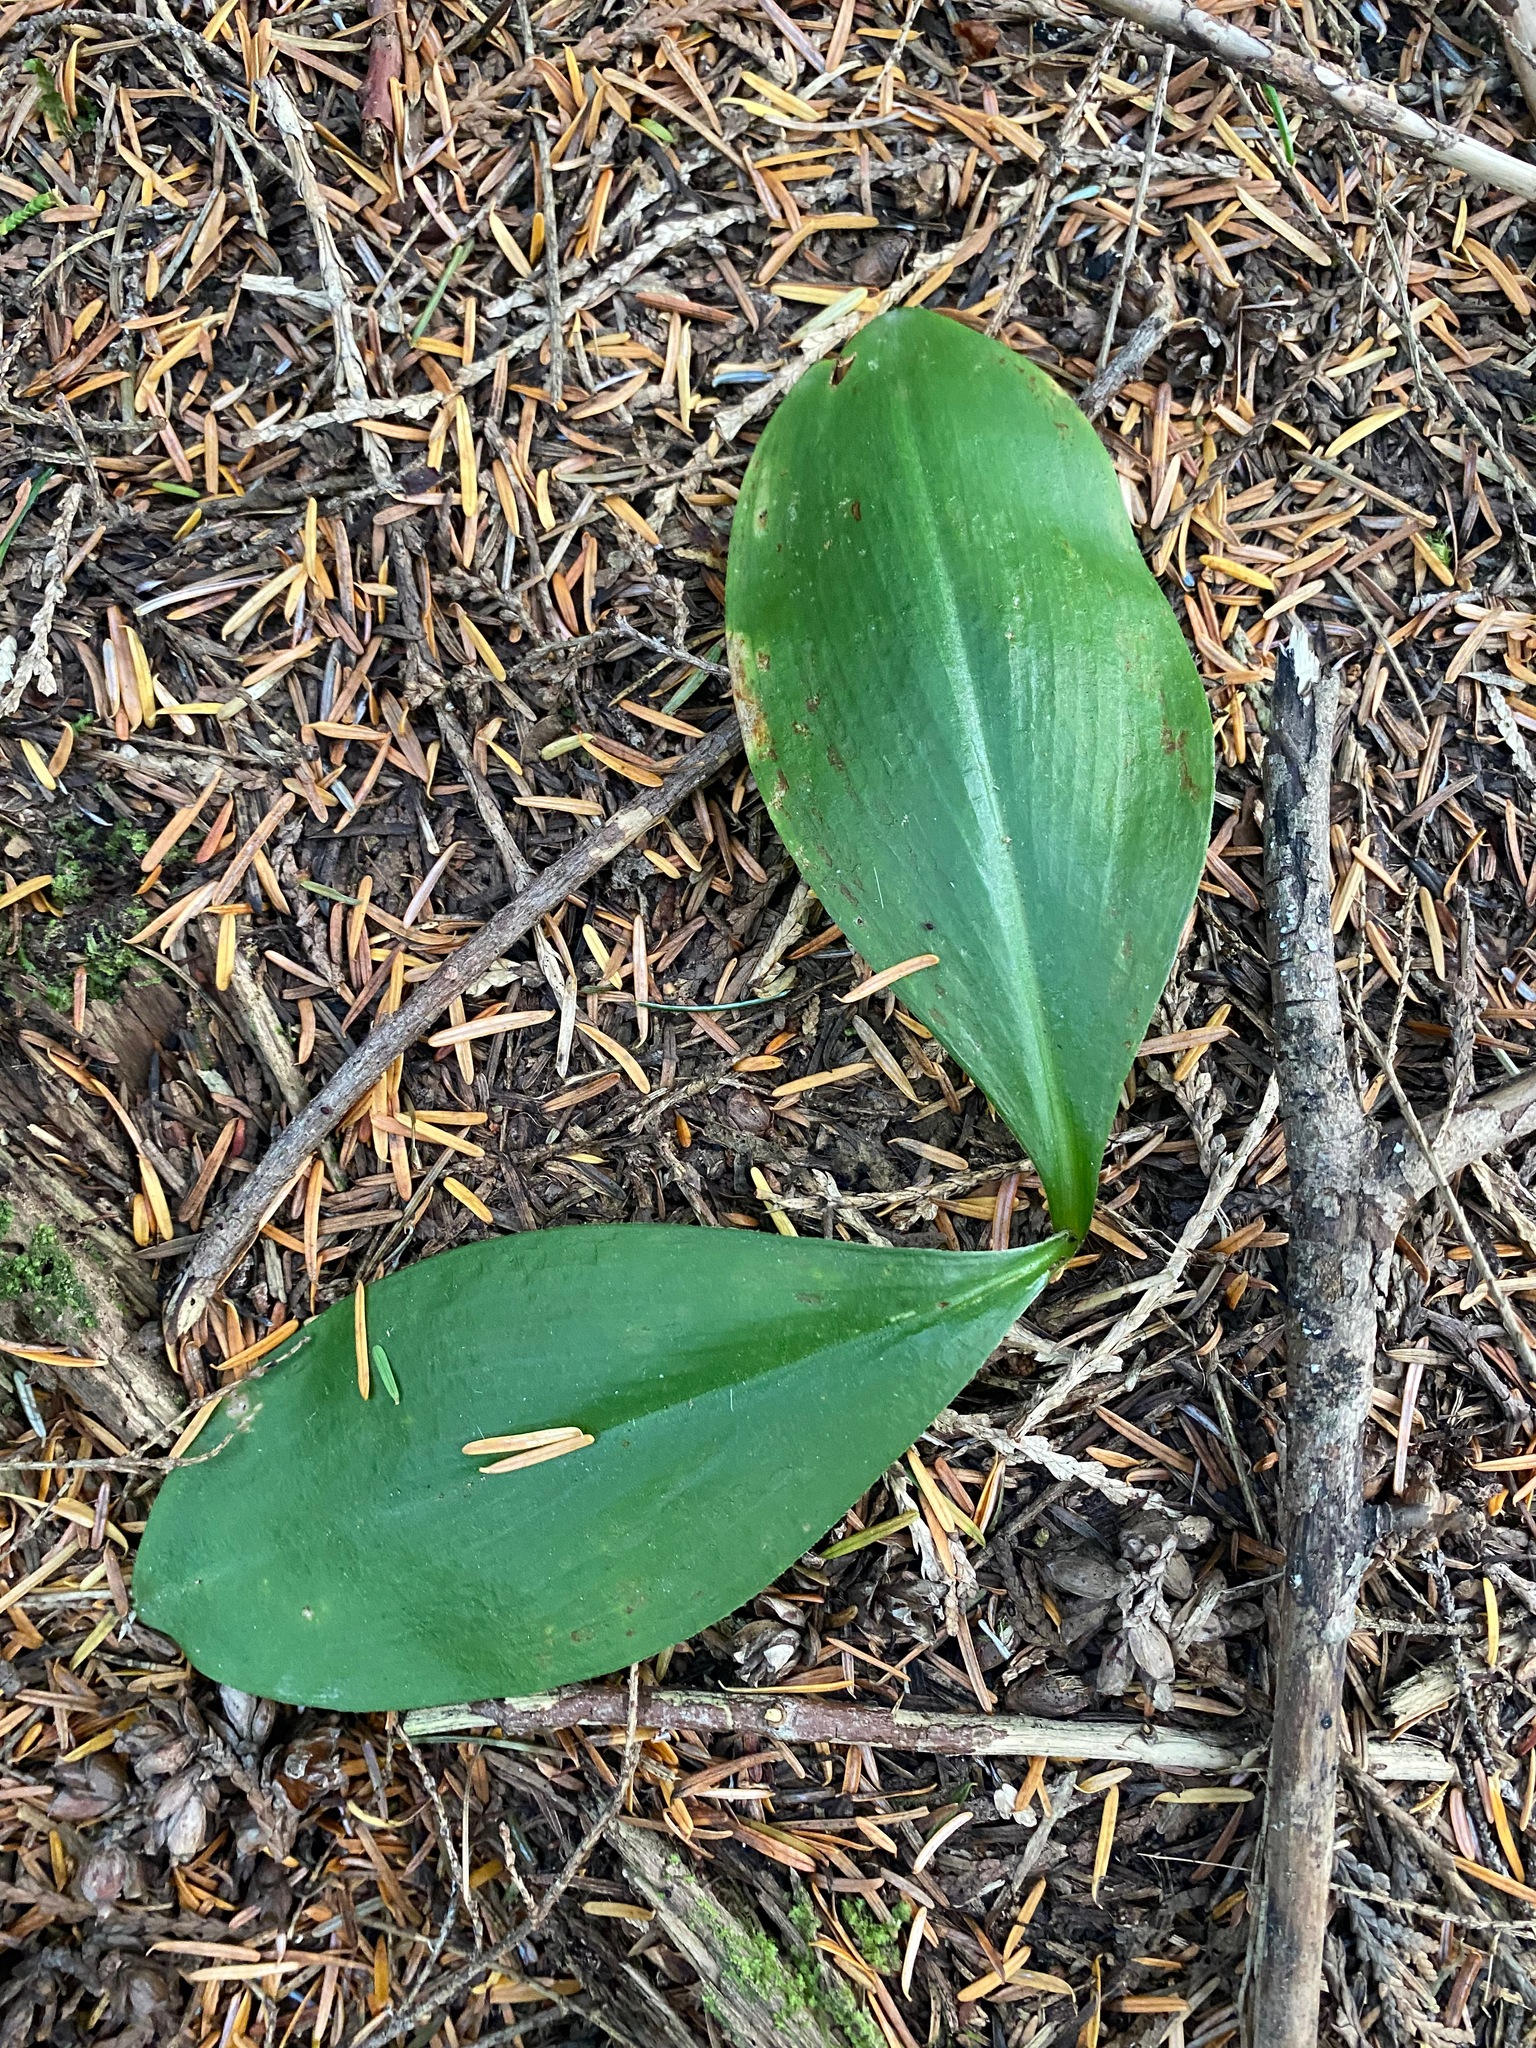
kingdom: Plantae
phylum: Tracheophyta
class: Liliopsida
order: Liliales
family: Liliaceae
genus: Clintonia
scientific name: Clintonia uniflora
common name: Queen's cup
